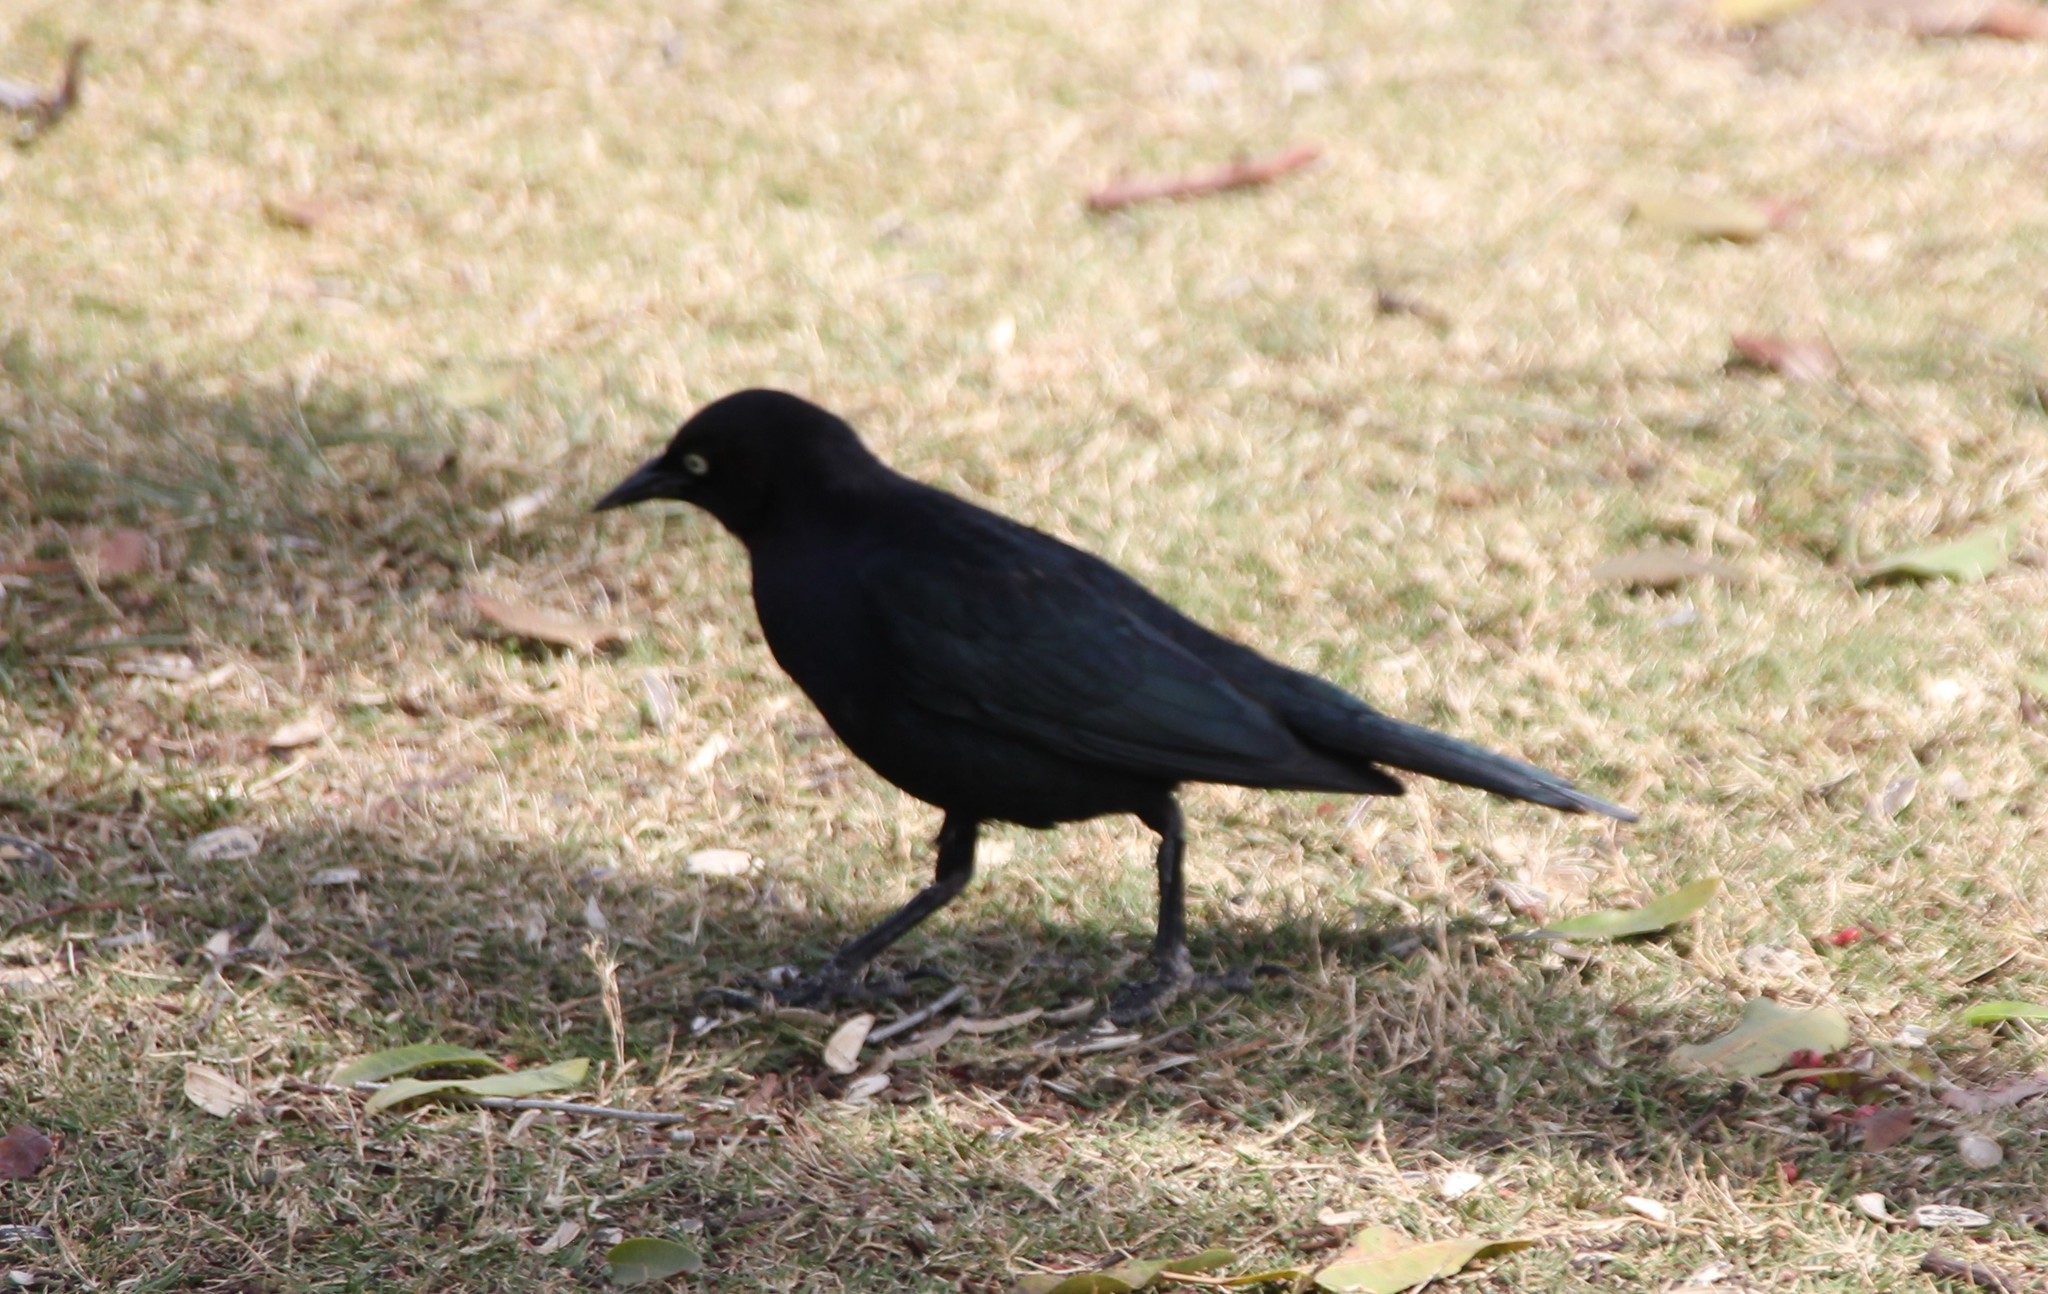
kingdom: Animalia
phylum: Chordata
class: Aves
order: Passeriformes
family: Icteridae
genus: Euphagus
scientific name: Euphagus cyanocephalus
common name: Brewer's blackbird
